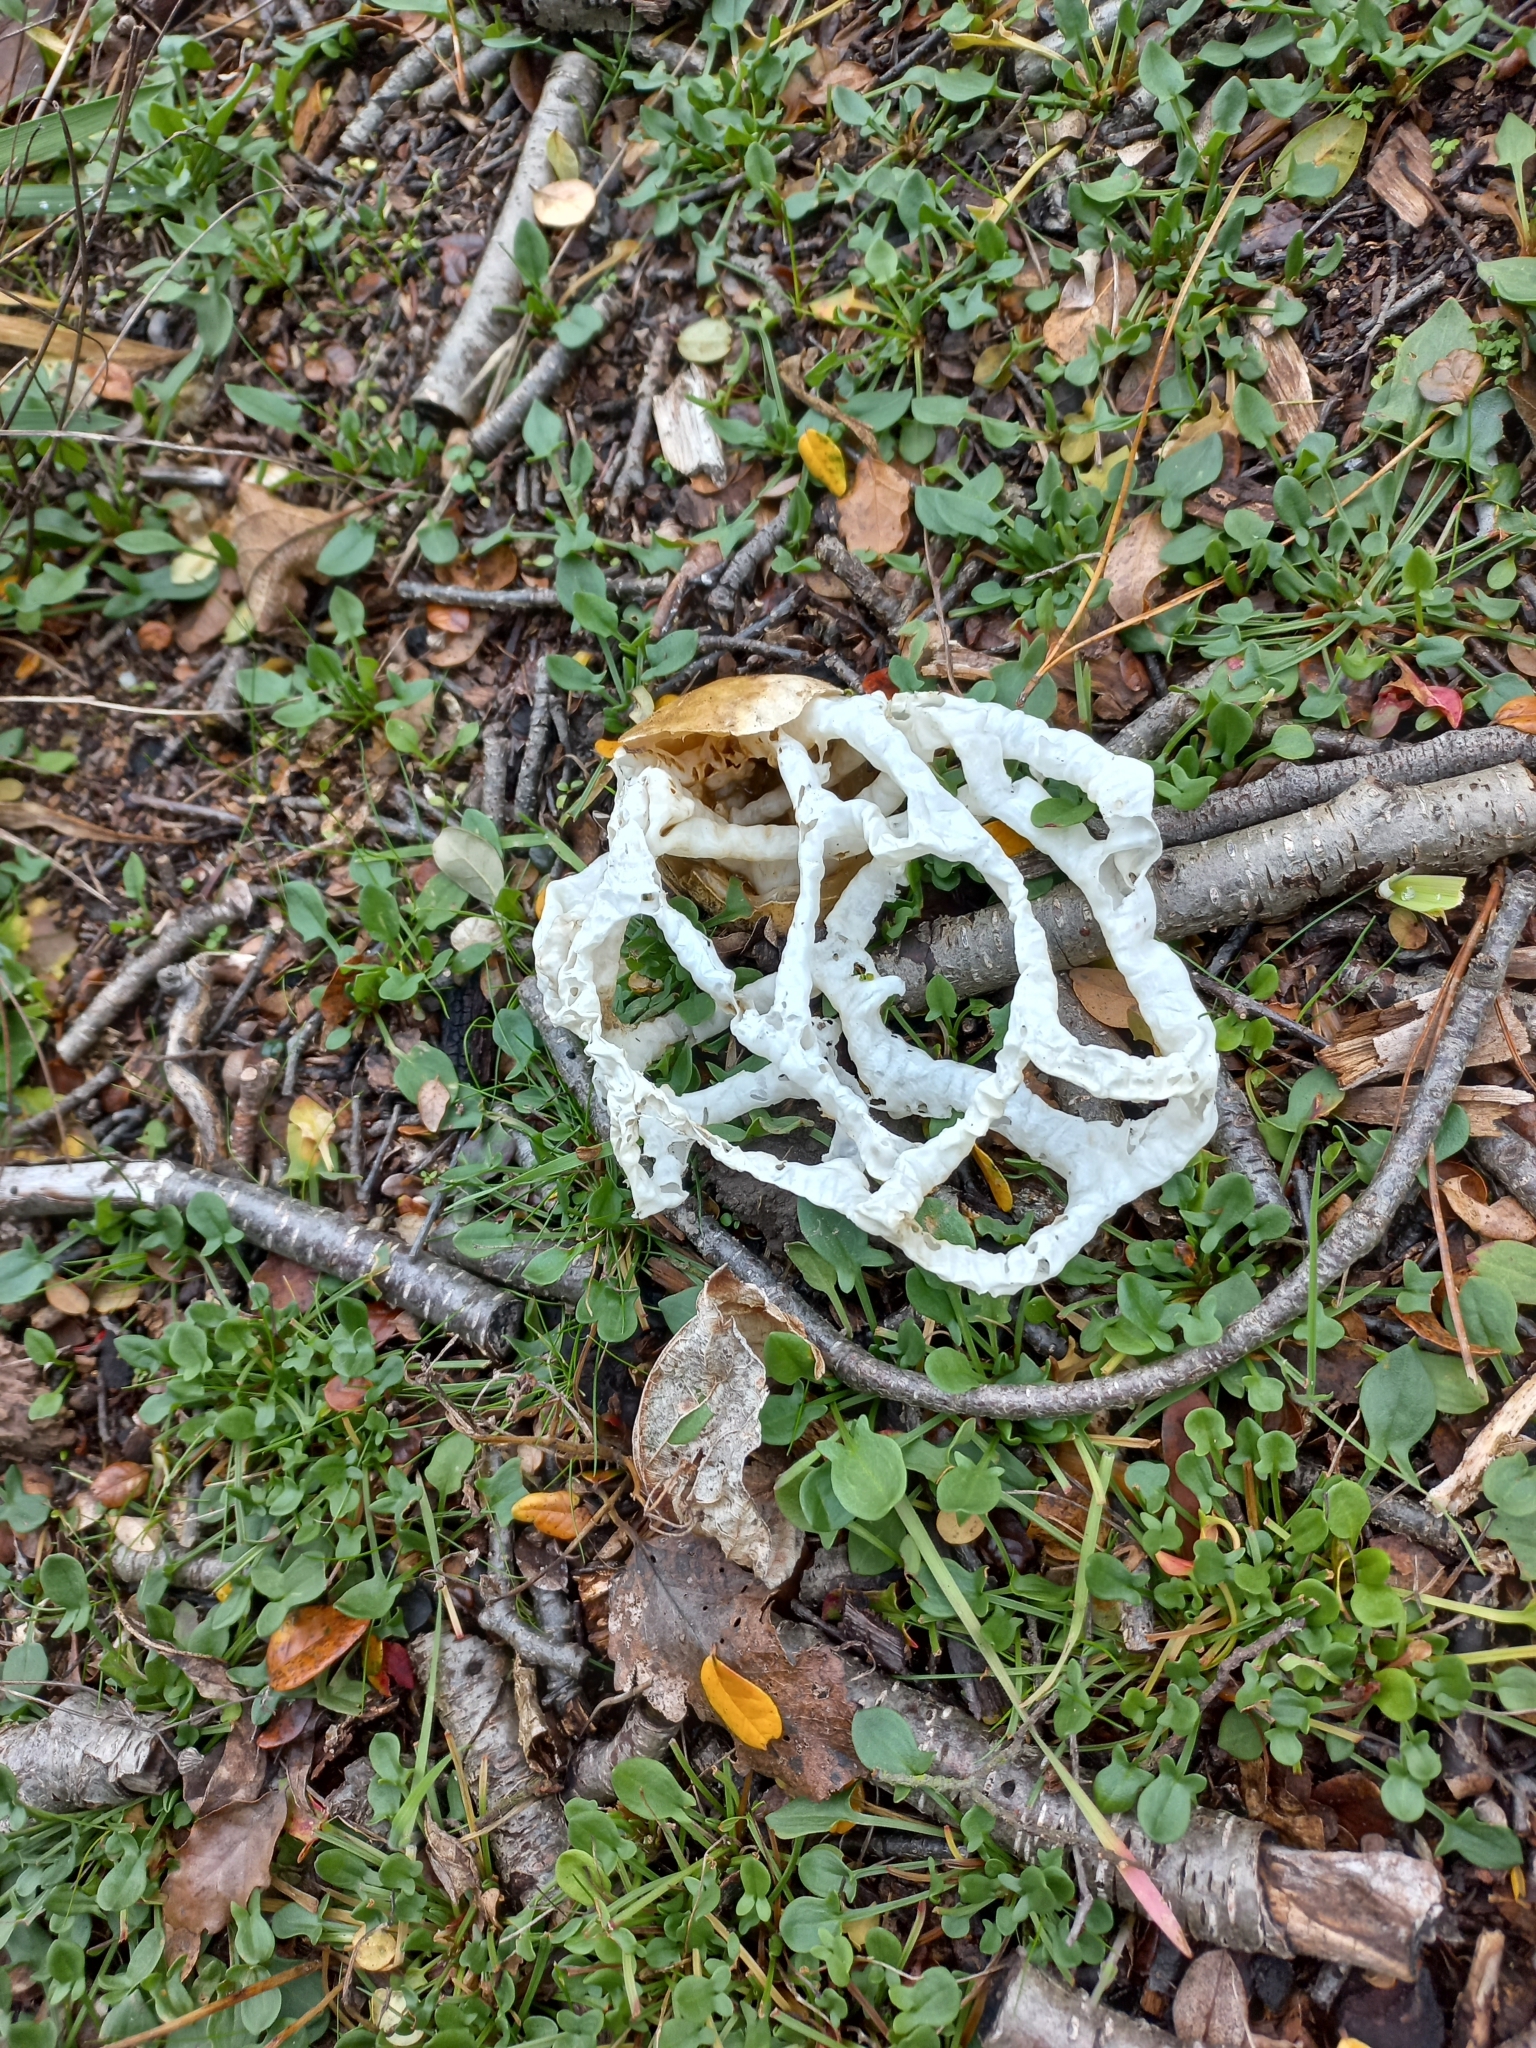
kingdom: Fungi
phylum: Basidiomycota
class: Agaricomycetes
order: Phallales
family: Phallaceae
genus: Ileodictyon
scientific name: Ileodictyon cibarium
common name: Basket fungus
